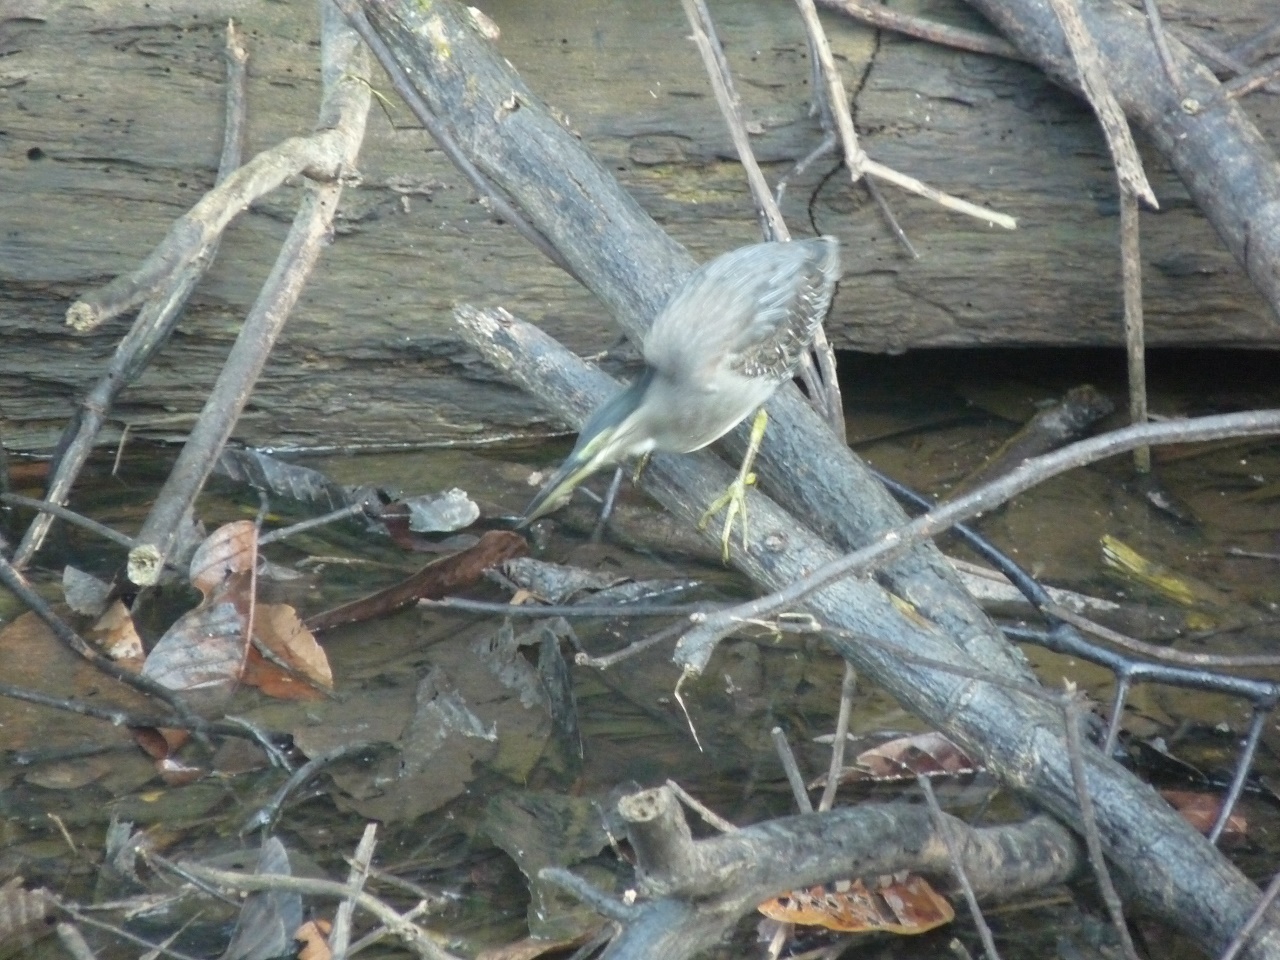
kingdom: Animalia
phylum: Chordata
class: Aves
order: Pelecaniformes
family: Ardeidae
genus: Butorides
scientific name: Butorides striata
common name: Striated heron
